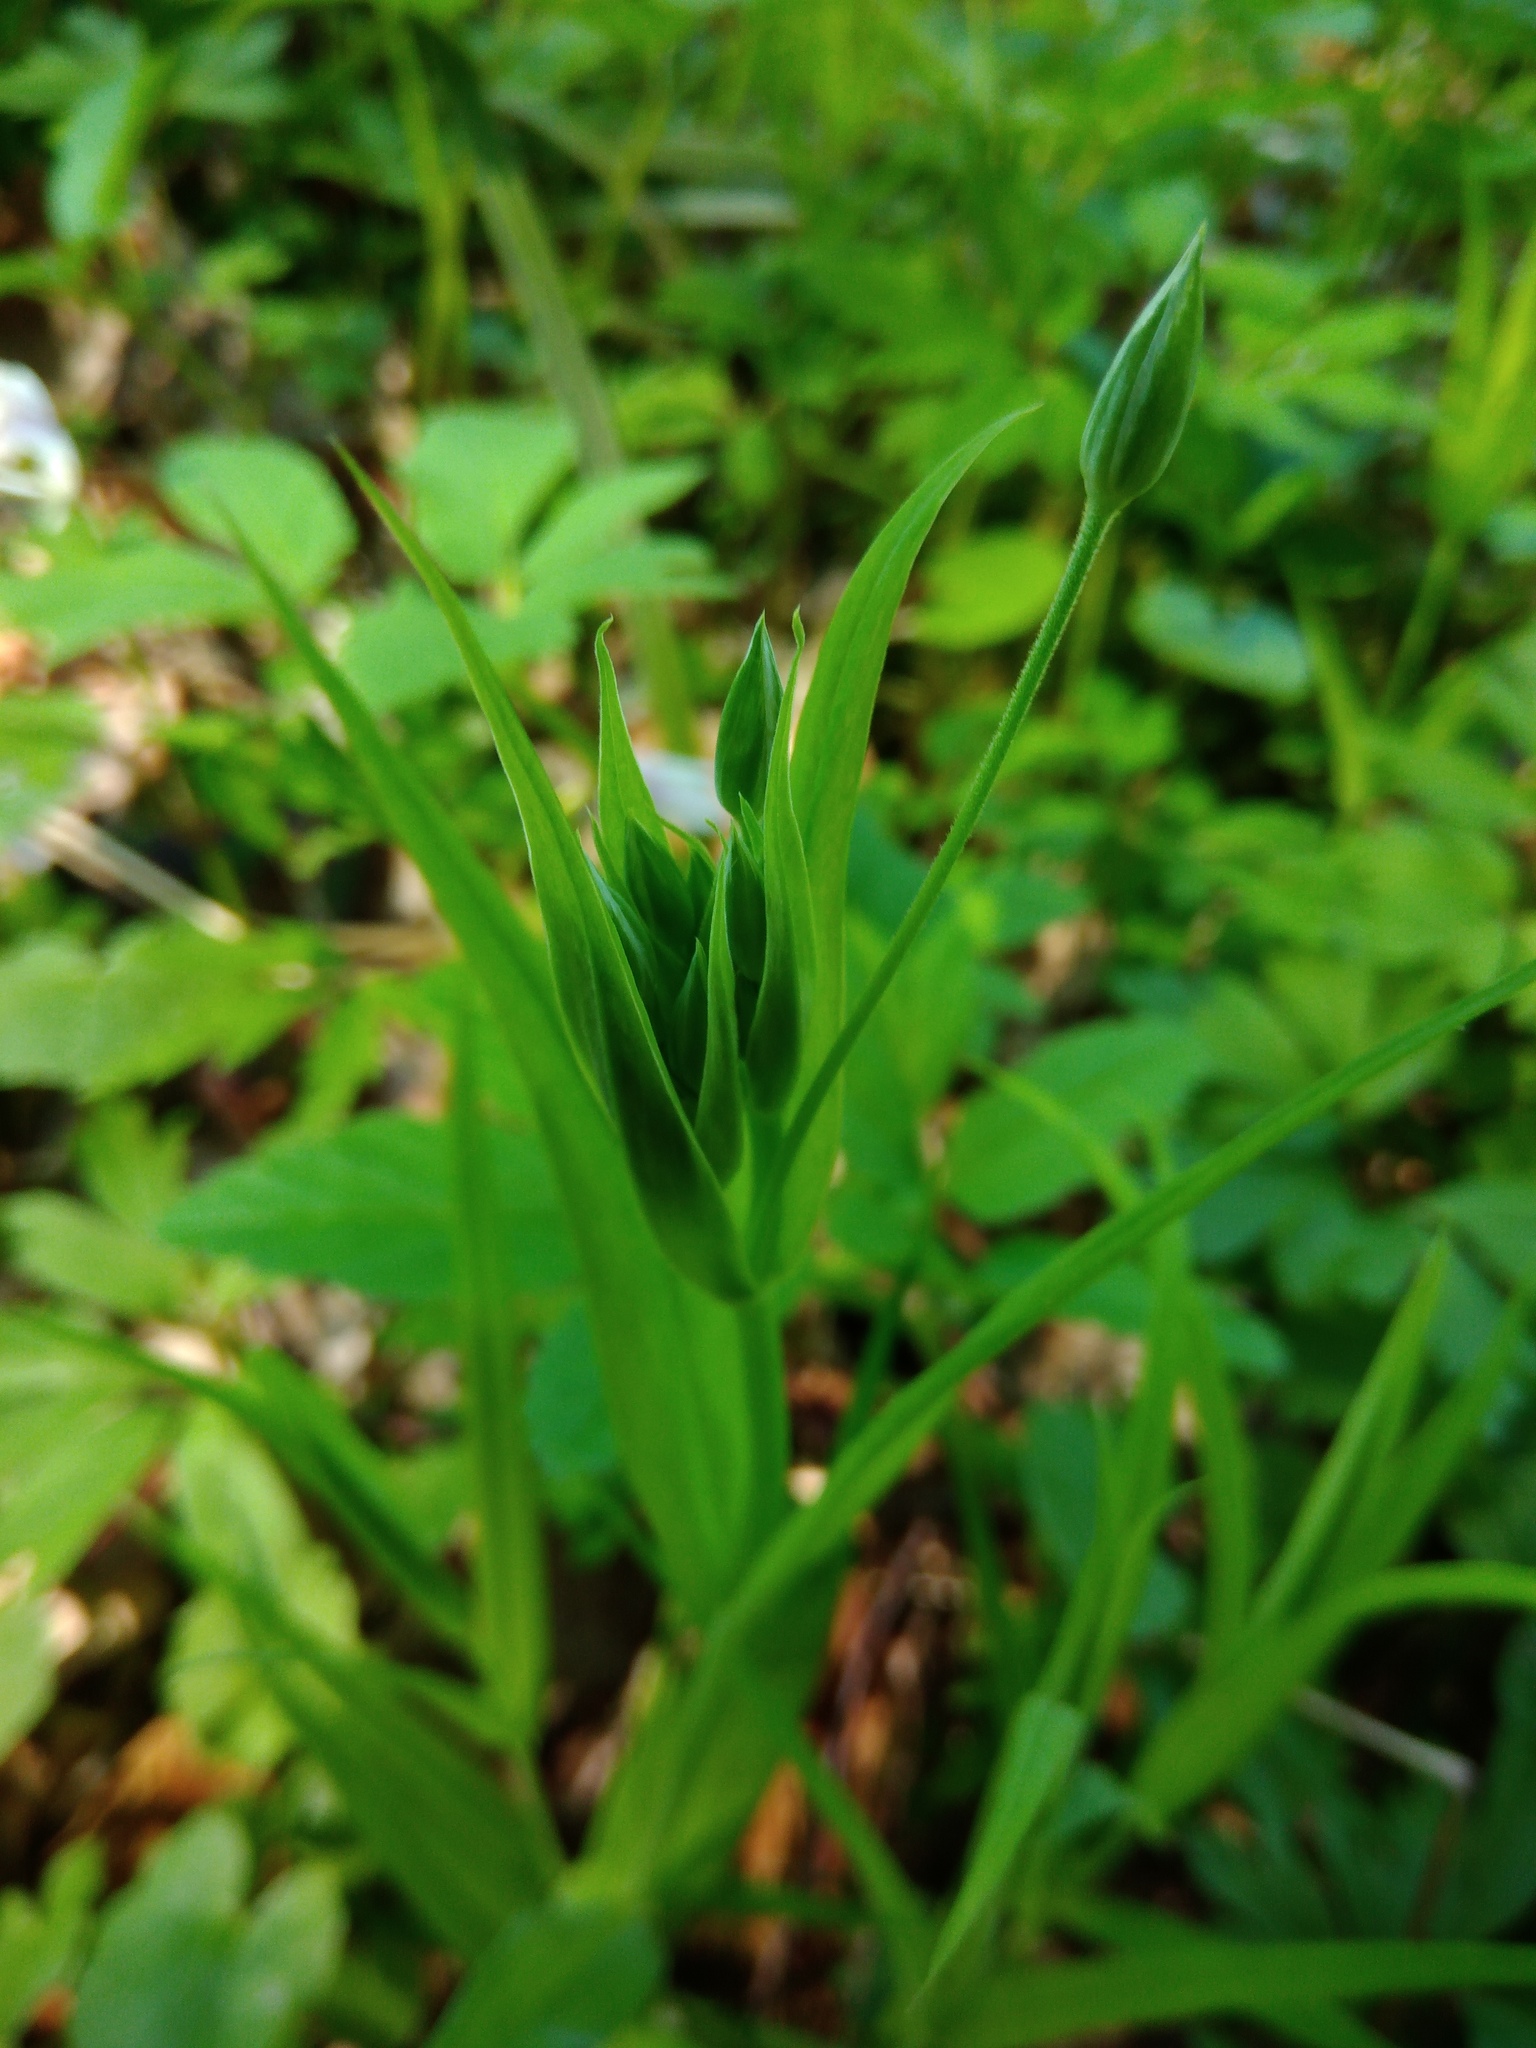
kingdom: Plantae
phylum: Tracheophyta
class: Magnoliopsida
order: Caryophyllales
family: Caryophyllaceae
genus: Rabelera
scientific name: Rabelera holostea
